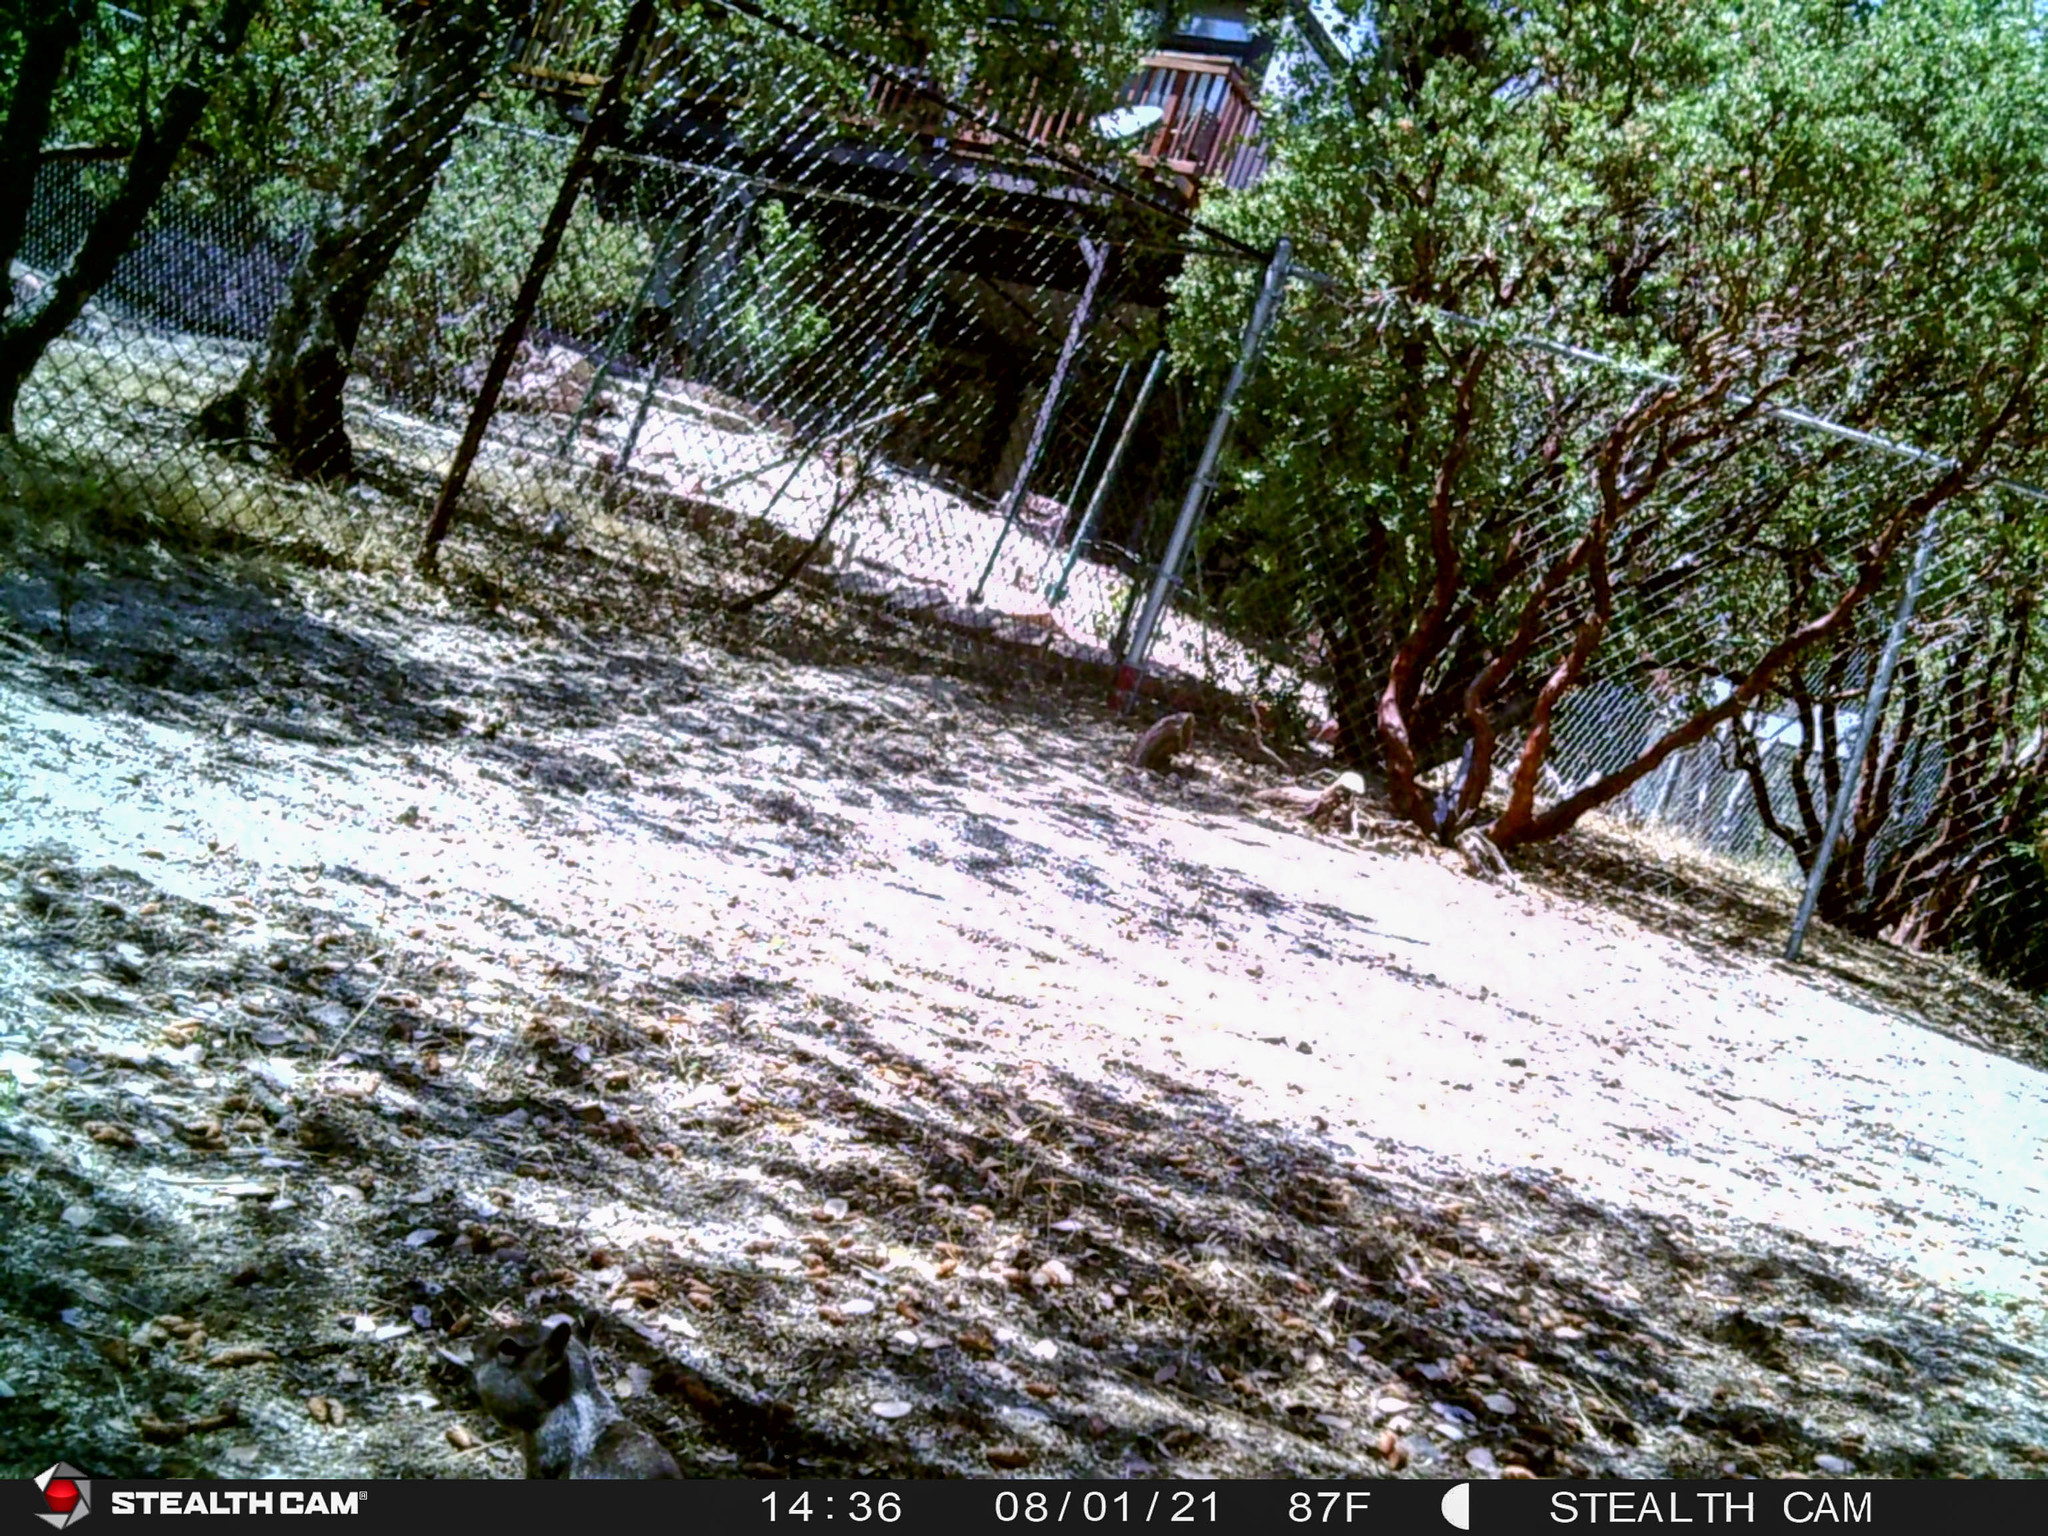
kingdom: Animalia
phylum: Chordata
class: Mammalia
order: Rodentia
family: Sciuridae
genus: Otospermophilus
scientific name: Otospermophilus beecheyi
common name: California ground squirrel
